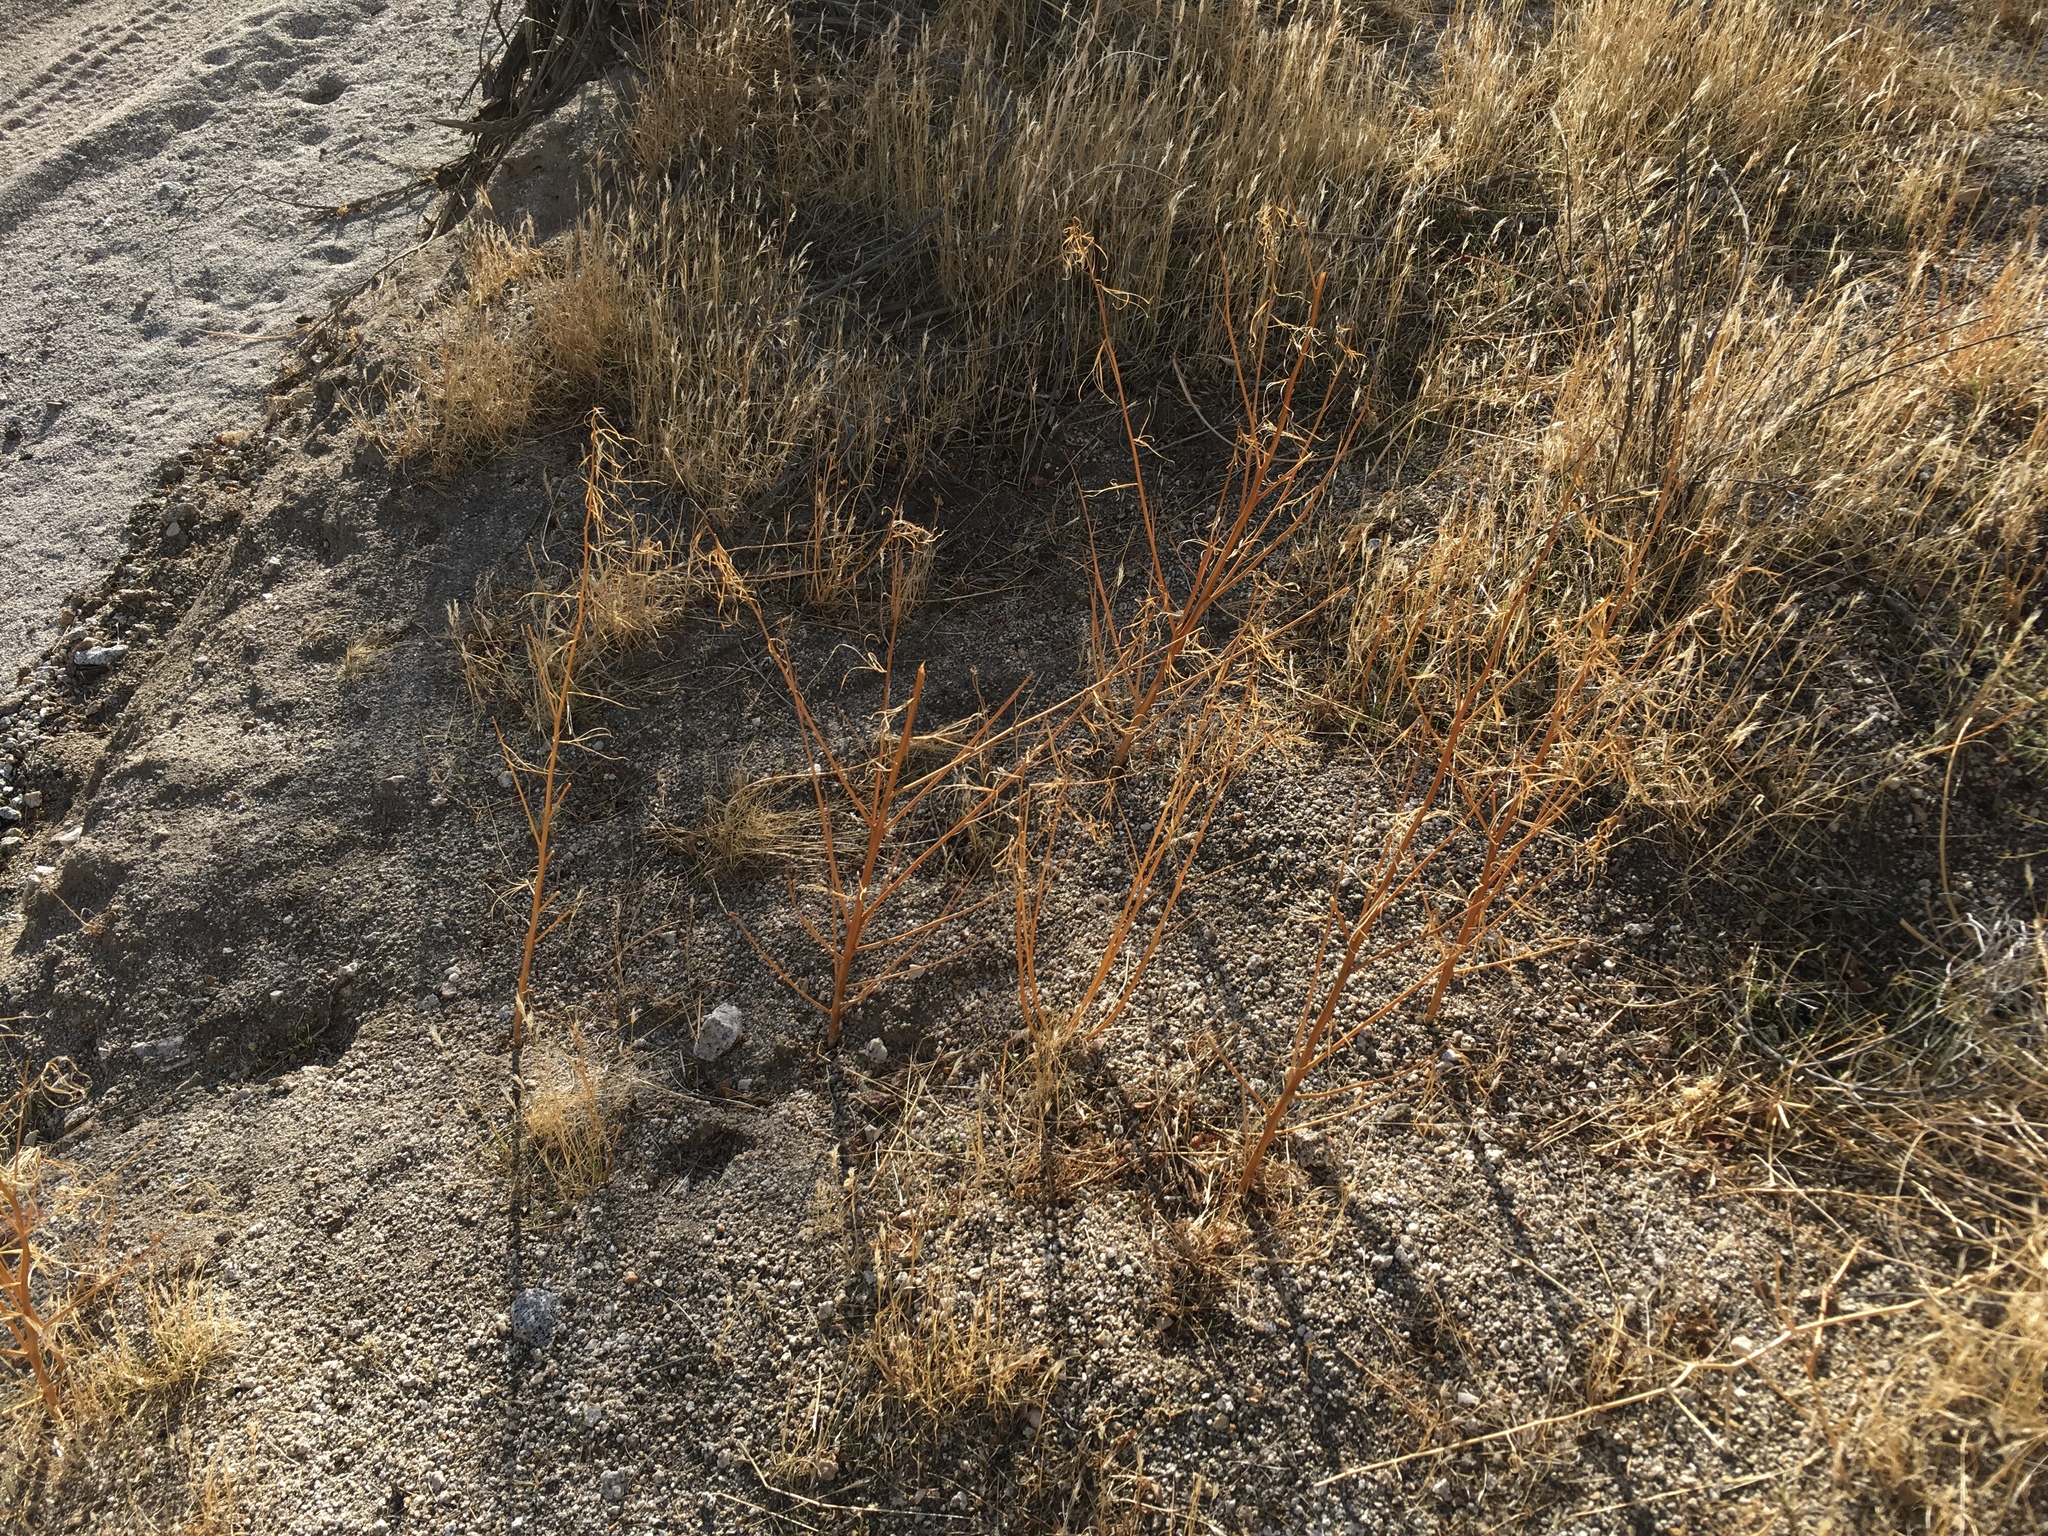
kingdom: Plantae
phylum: Tracheophyta
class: Magnoliopsida
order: Myrtales
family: Onagraceae
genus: Eulobus
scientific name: Eulobus californicus
